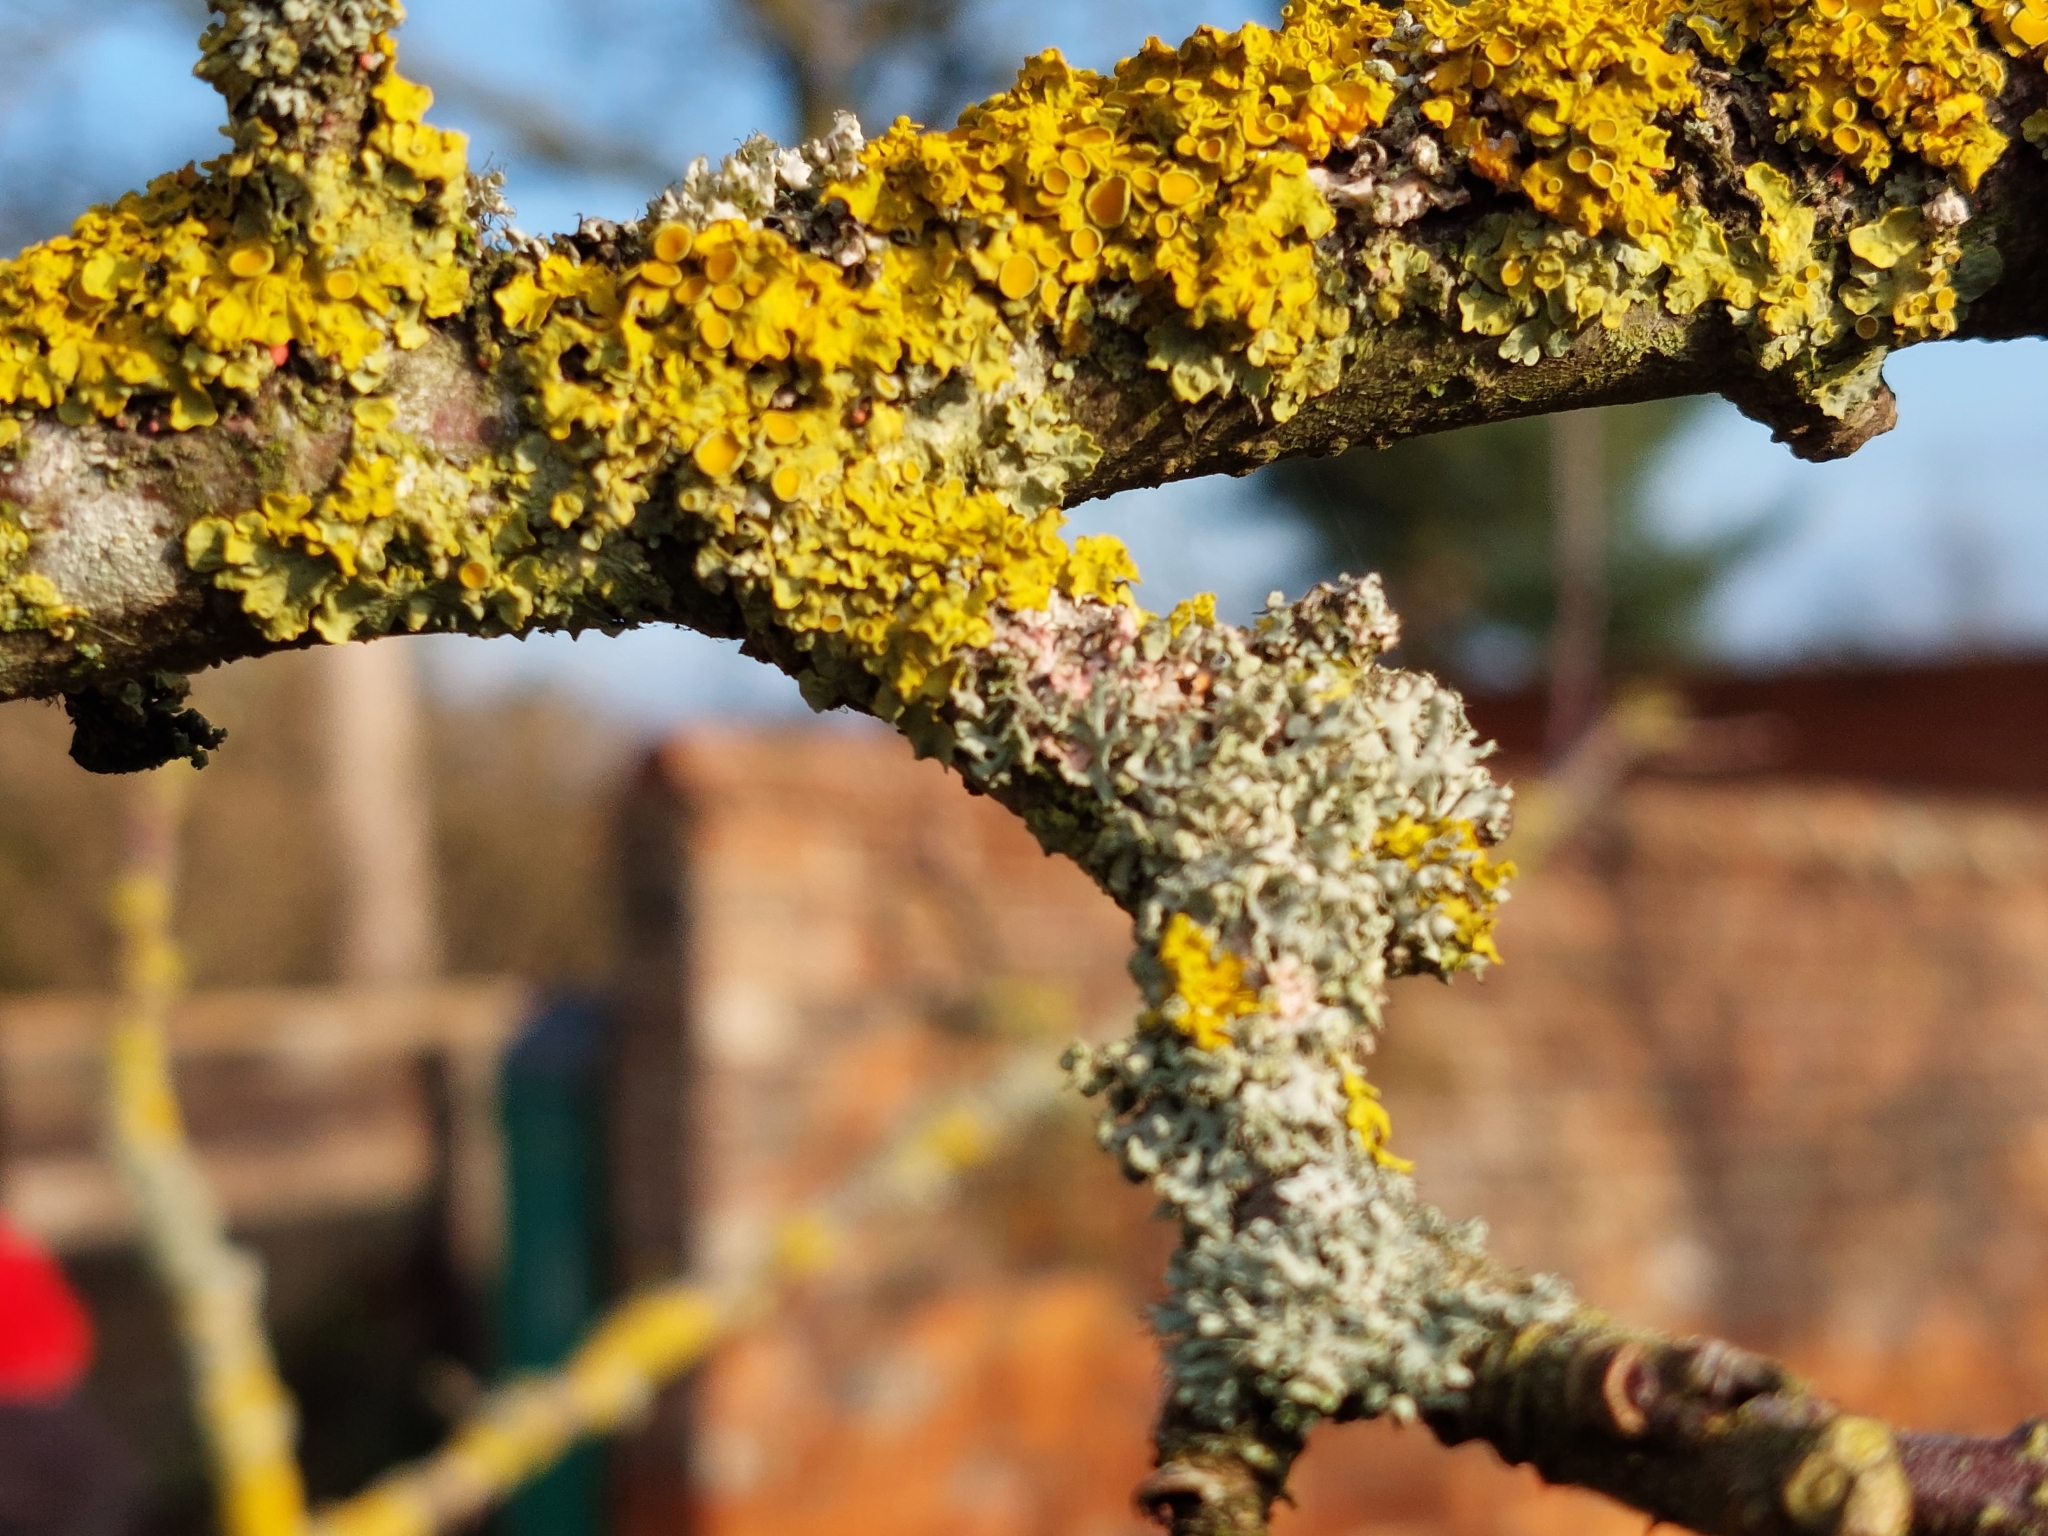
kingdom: Fungi
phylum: Ascomycota
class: Lecanoromycetes
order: Teloschistales
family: Teloschistaceae
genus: Xanthoria
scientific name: Xanthoria parietina
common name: Common orange lichen
